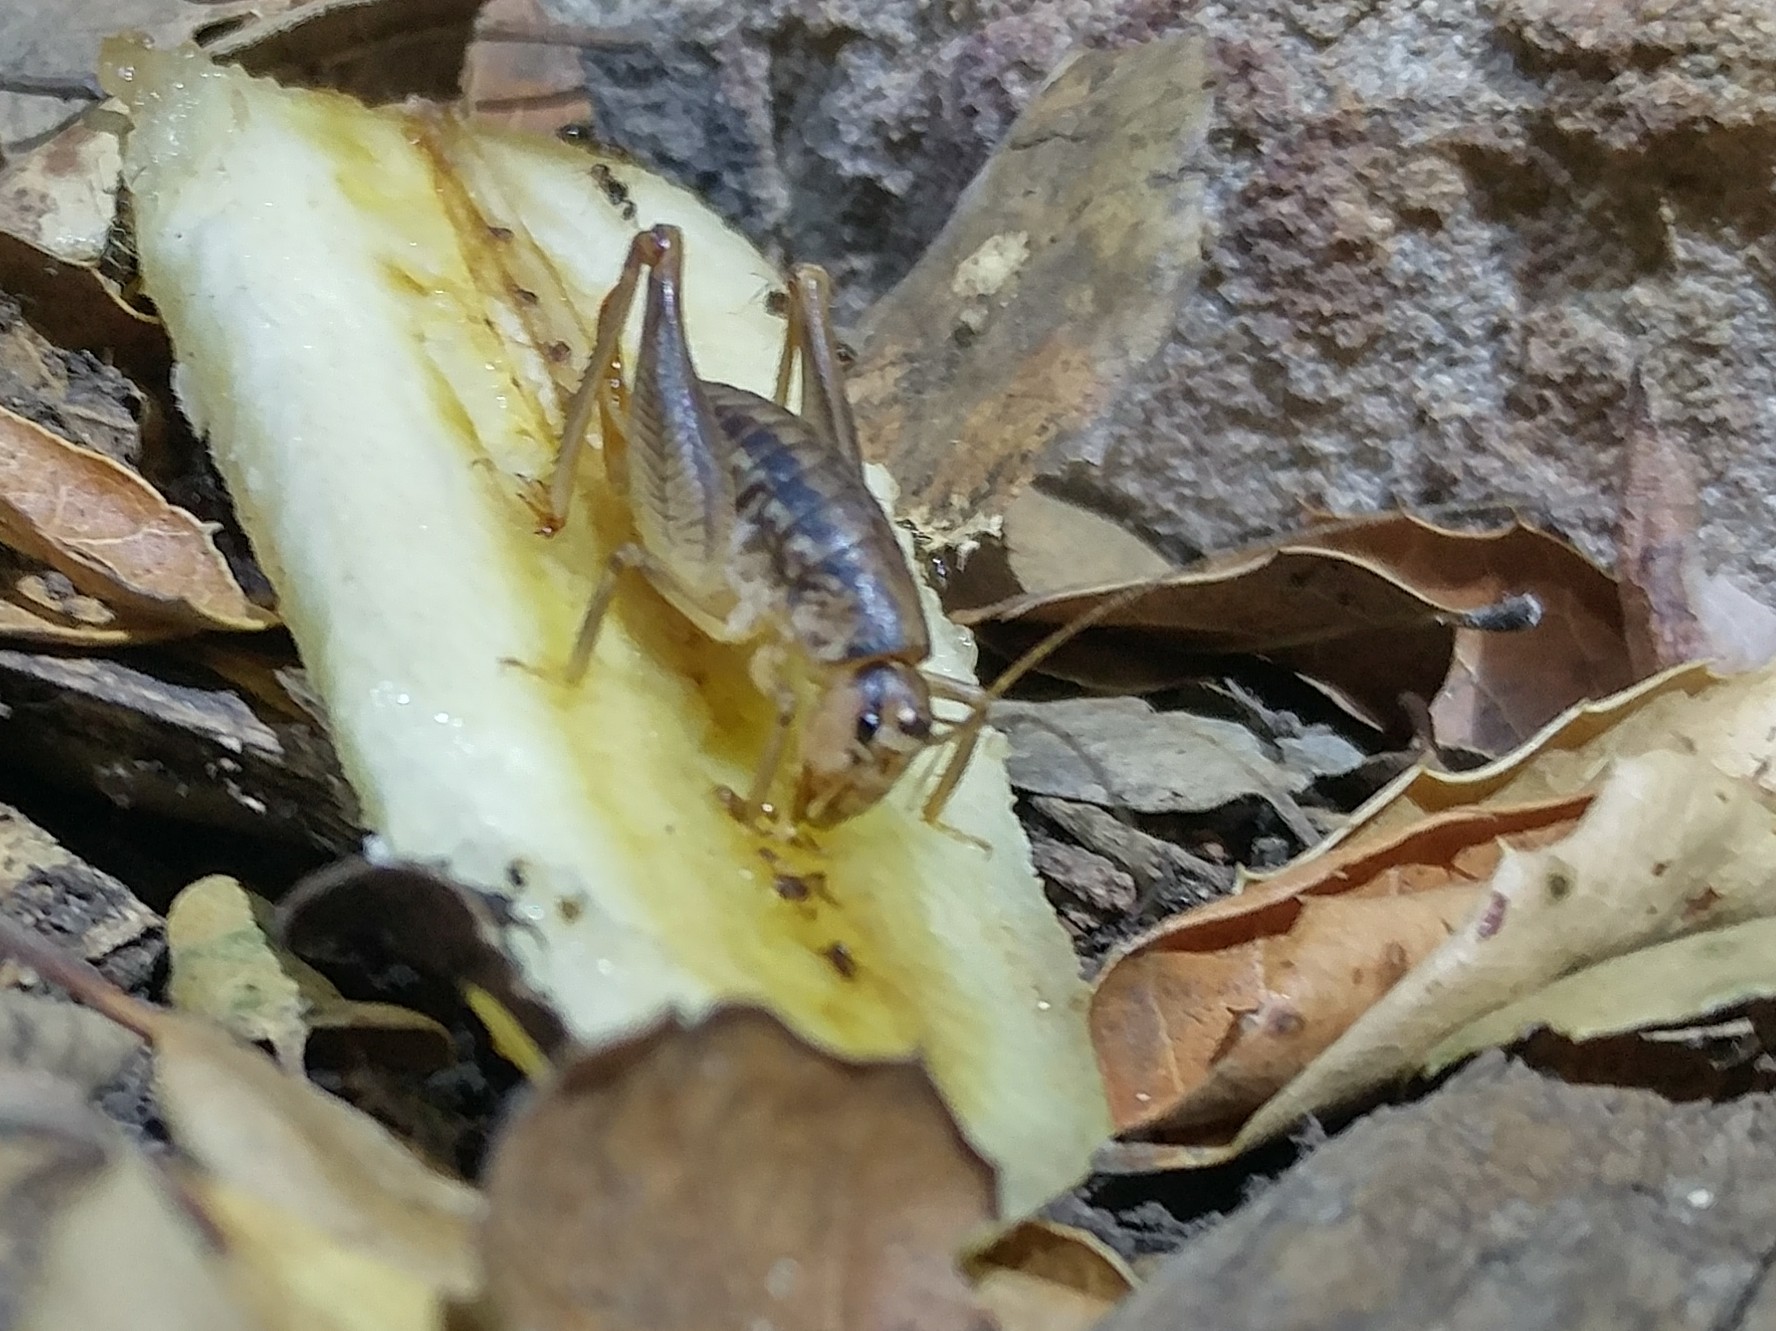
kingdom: Animalia
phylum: Arthropoda
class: Insecta
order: Orthoptera
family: Anostostomatidae
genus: Cnemotettix
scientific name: Cnemotettix bifasciatus
